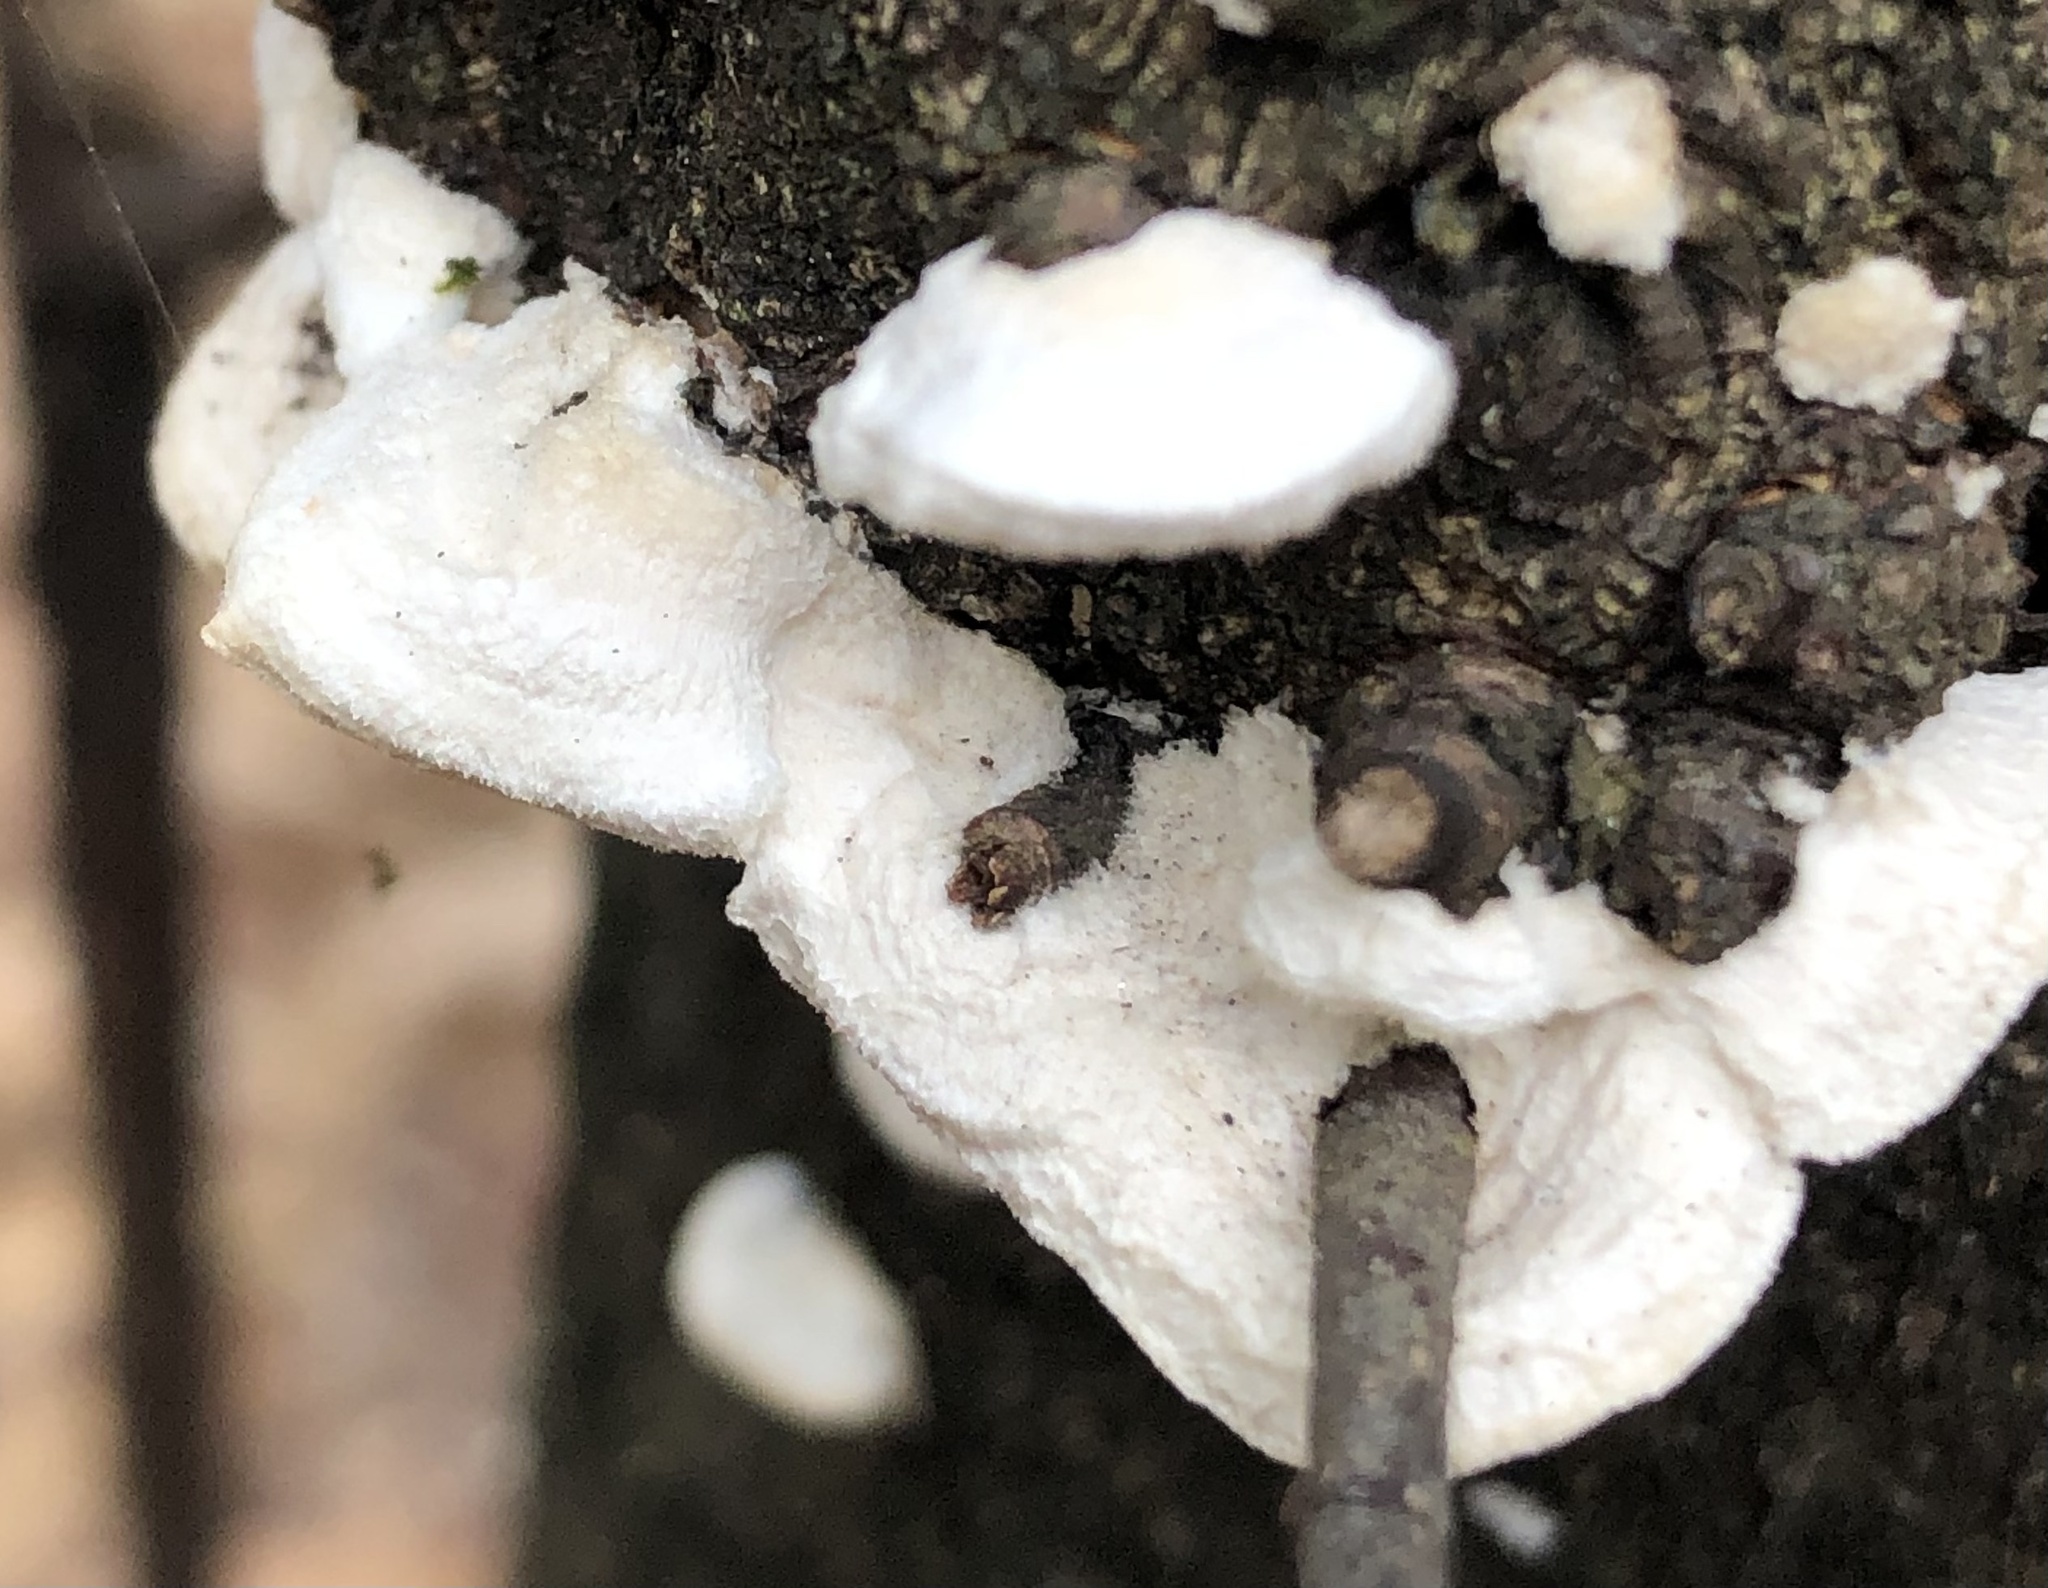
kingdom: Fungi
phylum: Basidiomycota
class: Agaricomycetes
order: Polyporales
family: Meruliaceae
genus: Irpiciporus
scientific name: Irpiciporus pachyodon
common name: Marshmallow polypore
